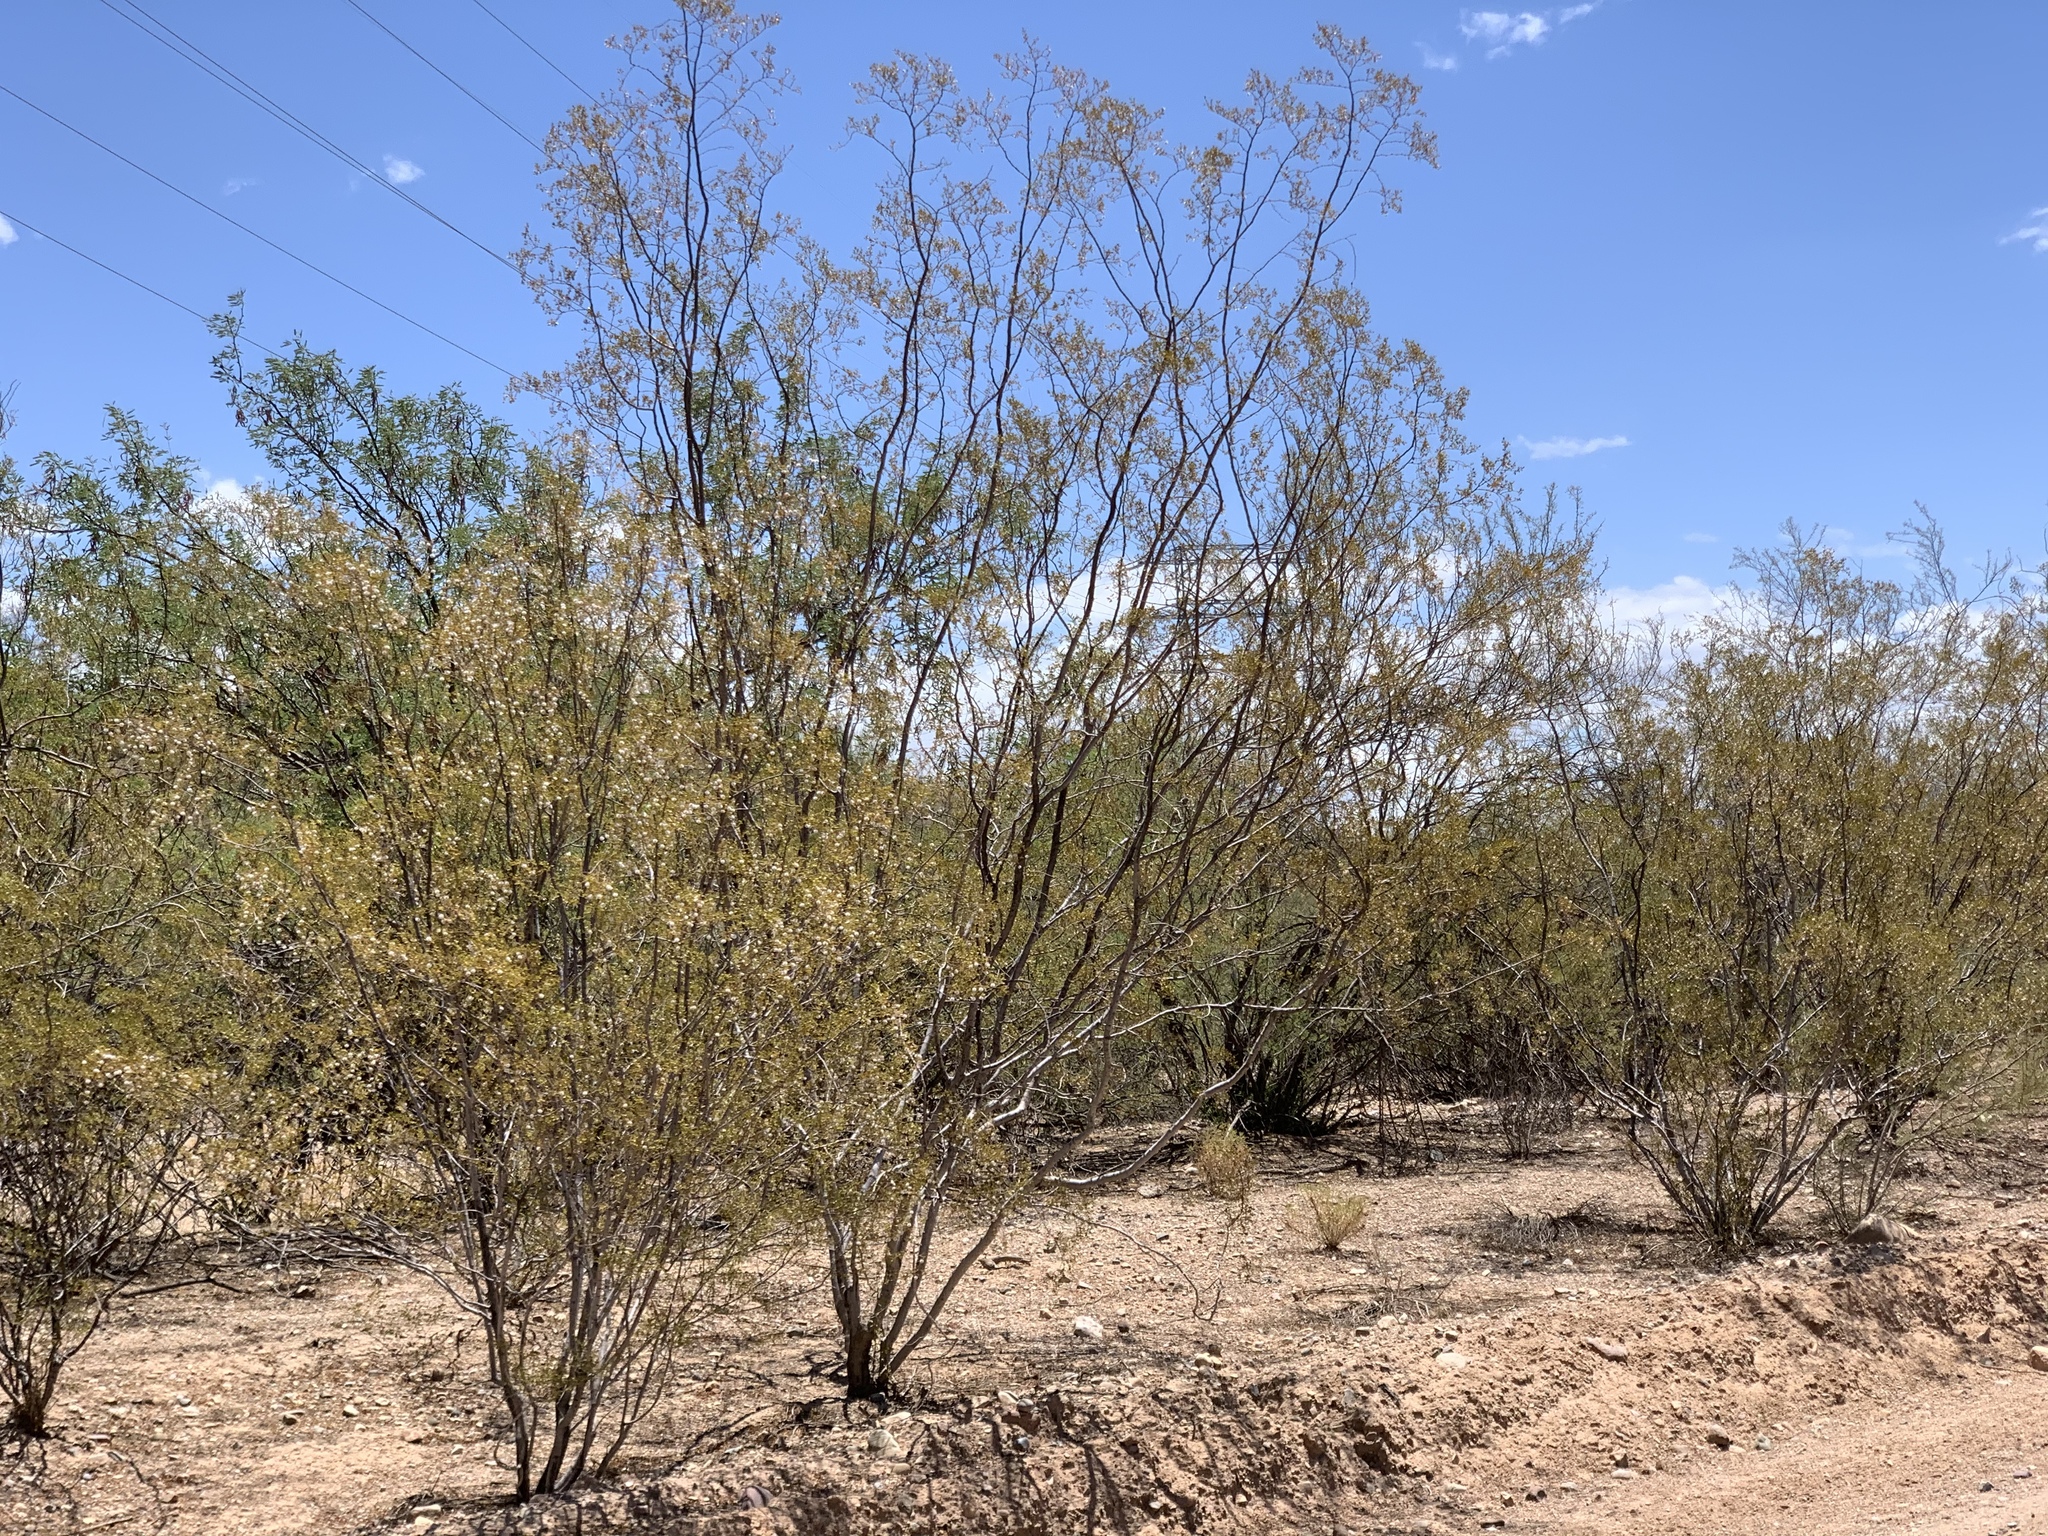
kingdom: Plantae
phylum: Tracheophyta
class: Magnoliopsida
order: Zygophyllales
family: Zygophyllaceae
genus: Larrea
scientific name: Larrea tridentata
